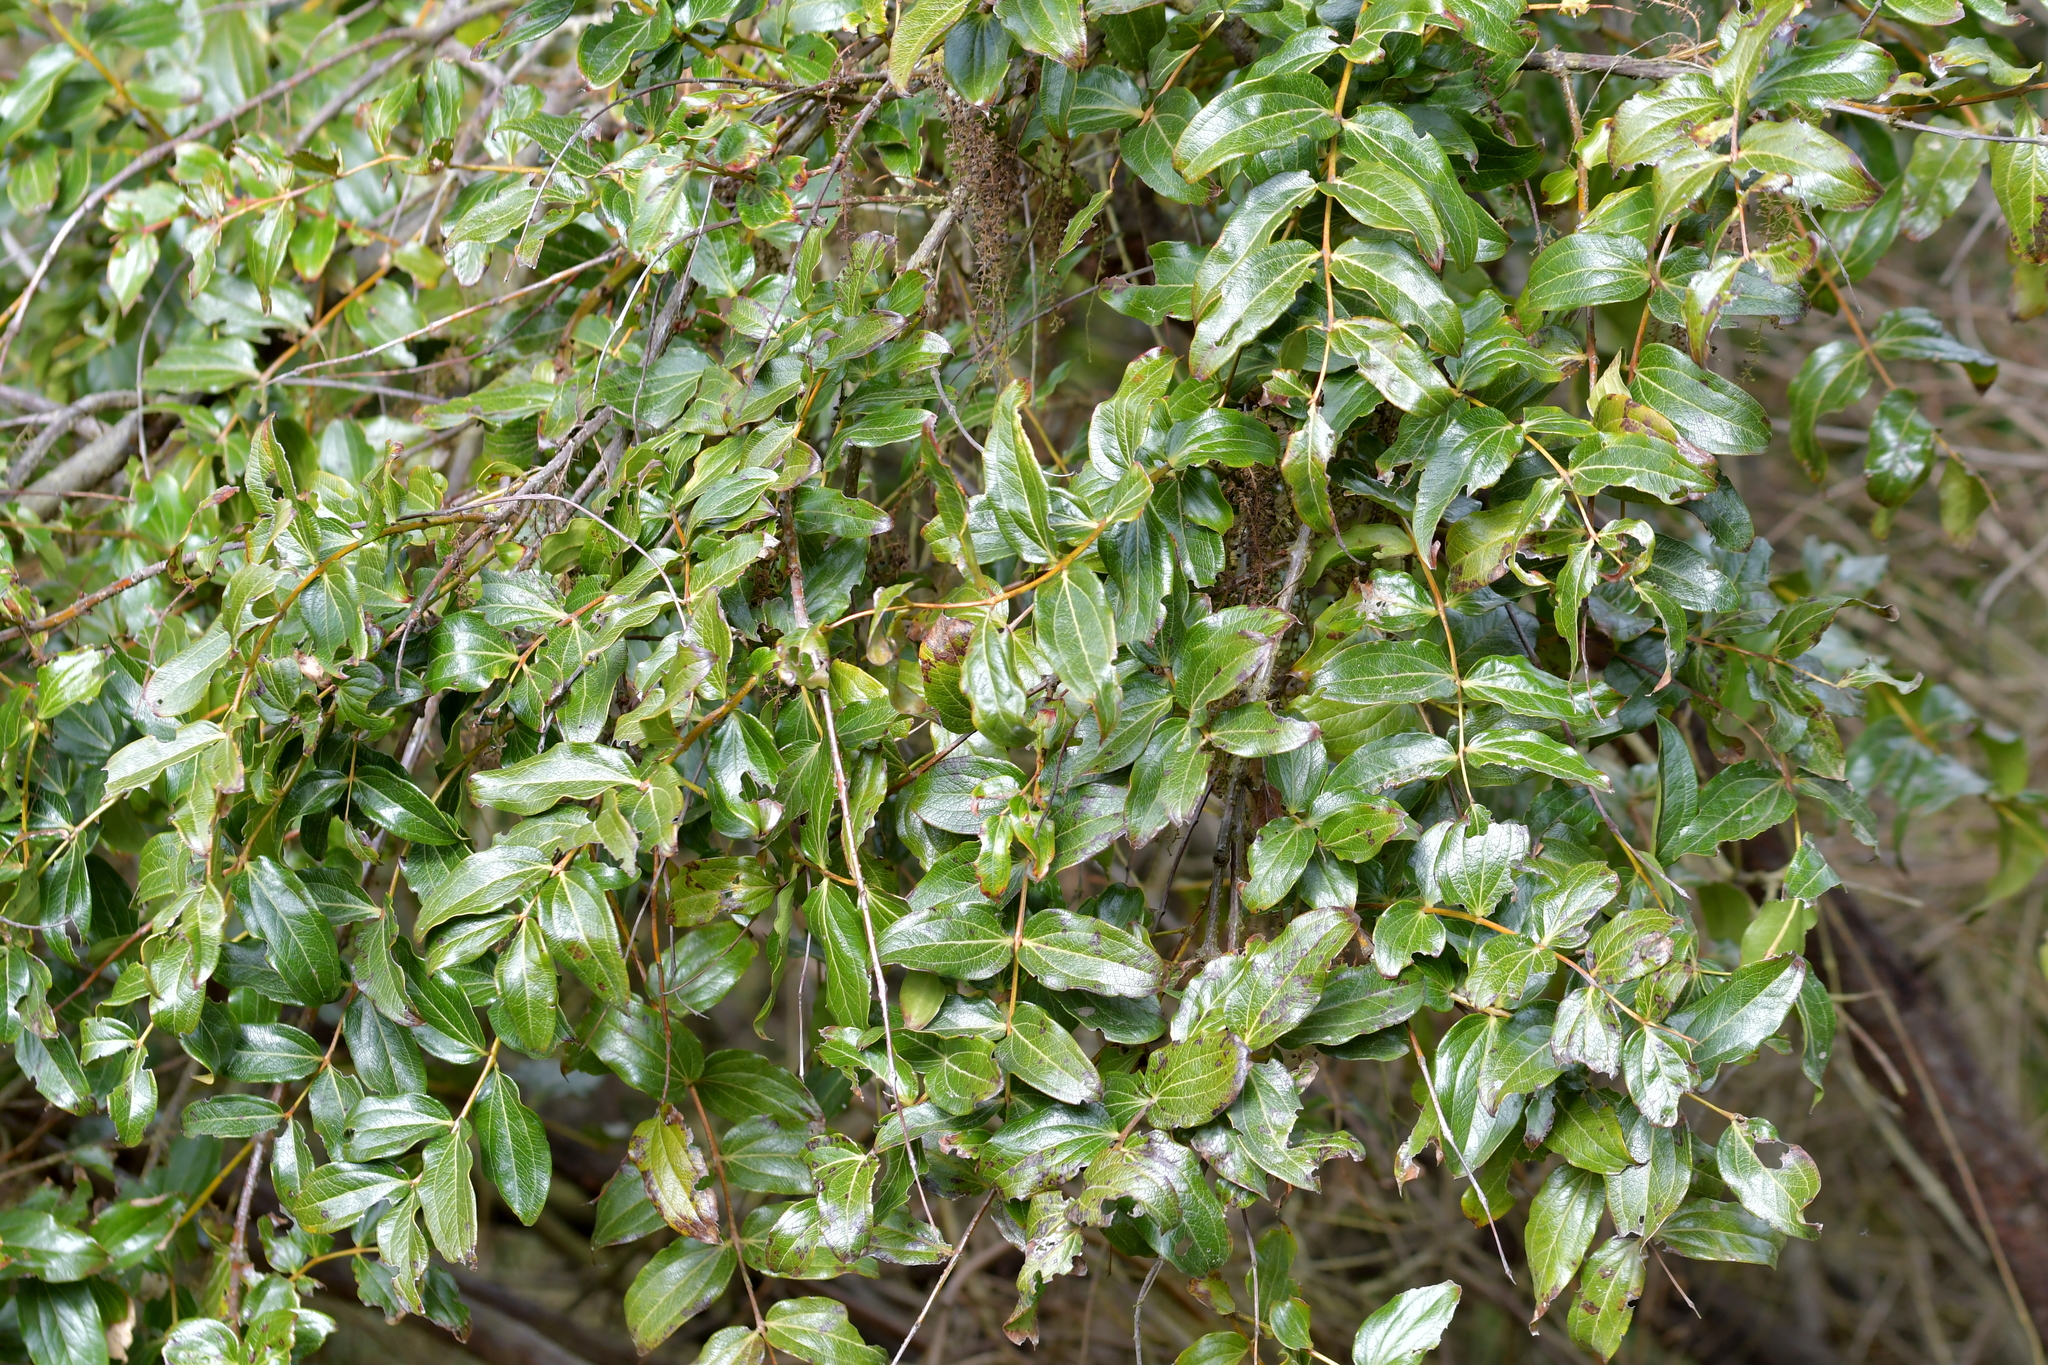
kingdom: Plantae
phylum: Tracheophyta
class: Magnoliopsida
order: Cucurbitales
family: Coriariaceae
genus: Coriaria
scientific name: Coriaria arborea
